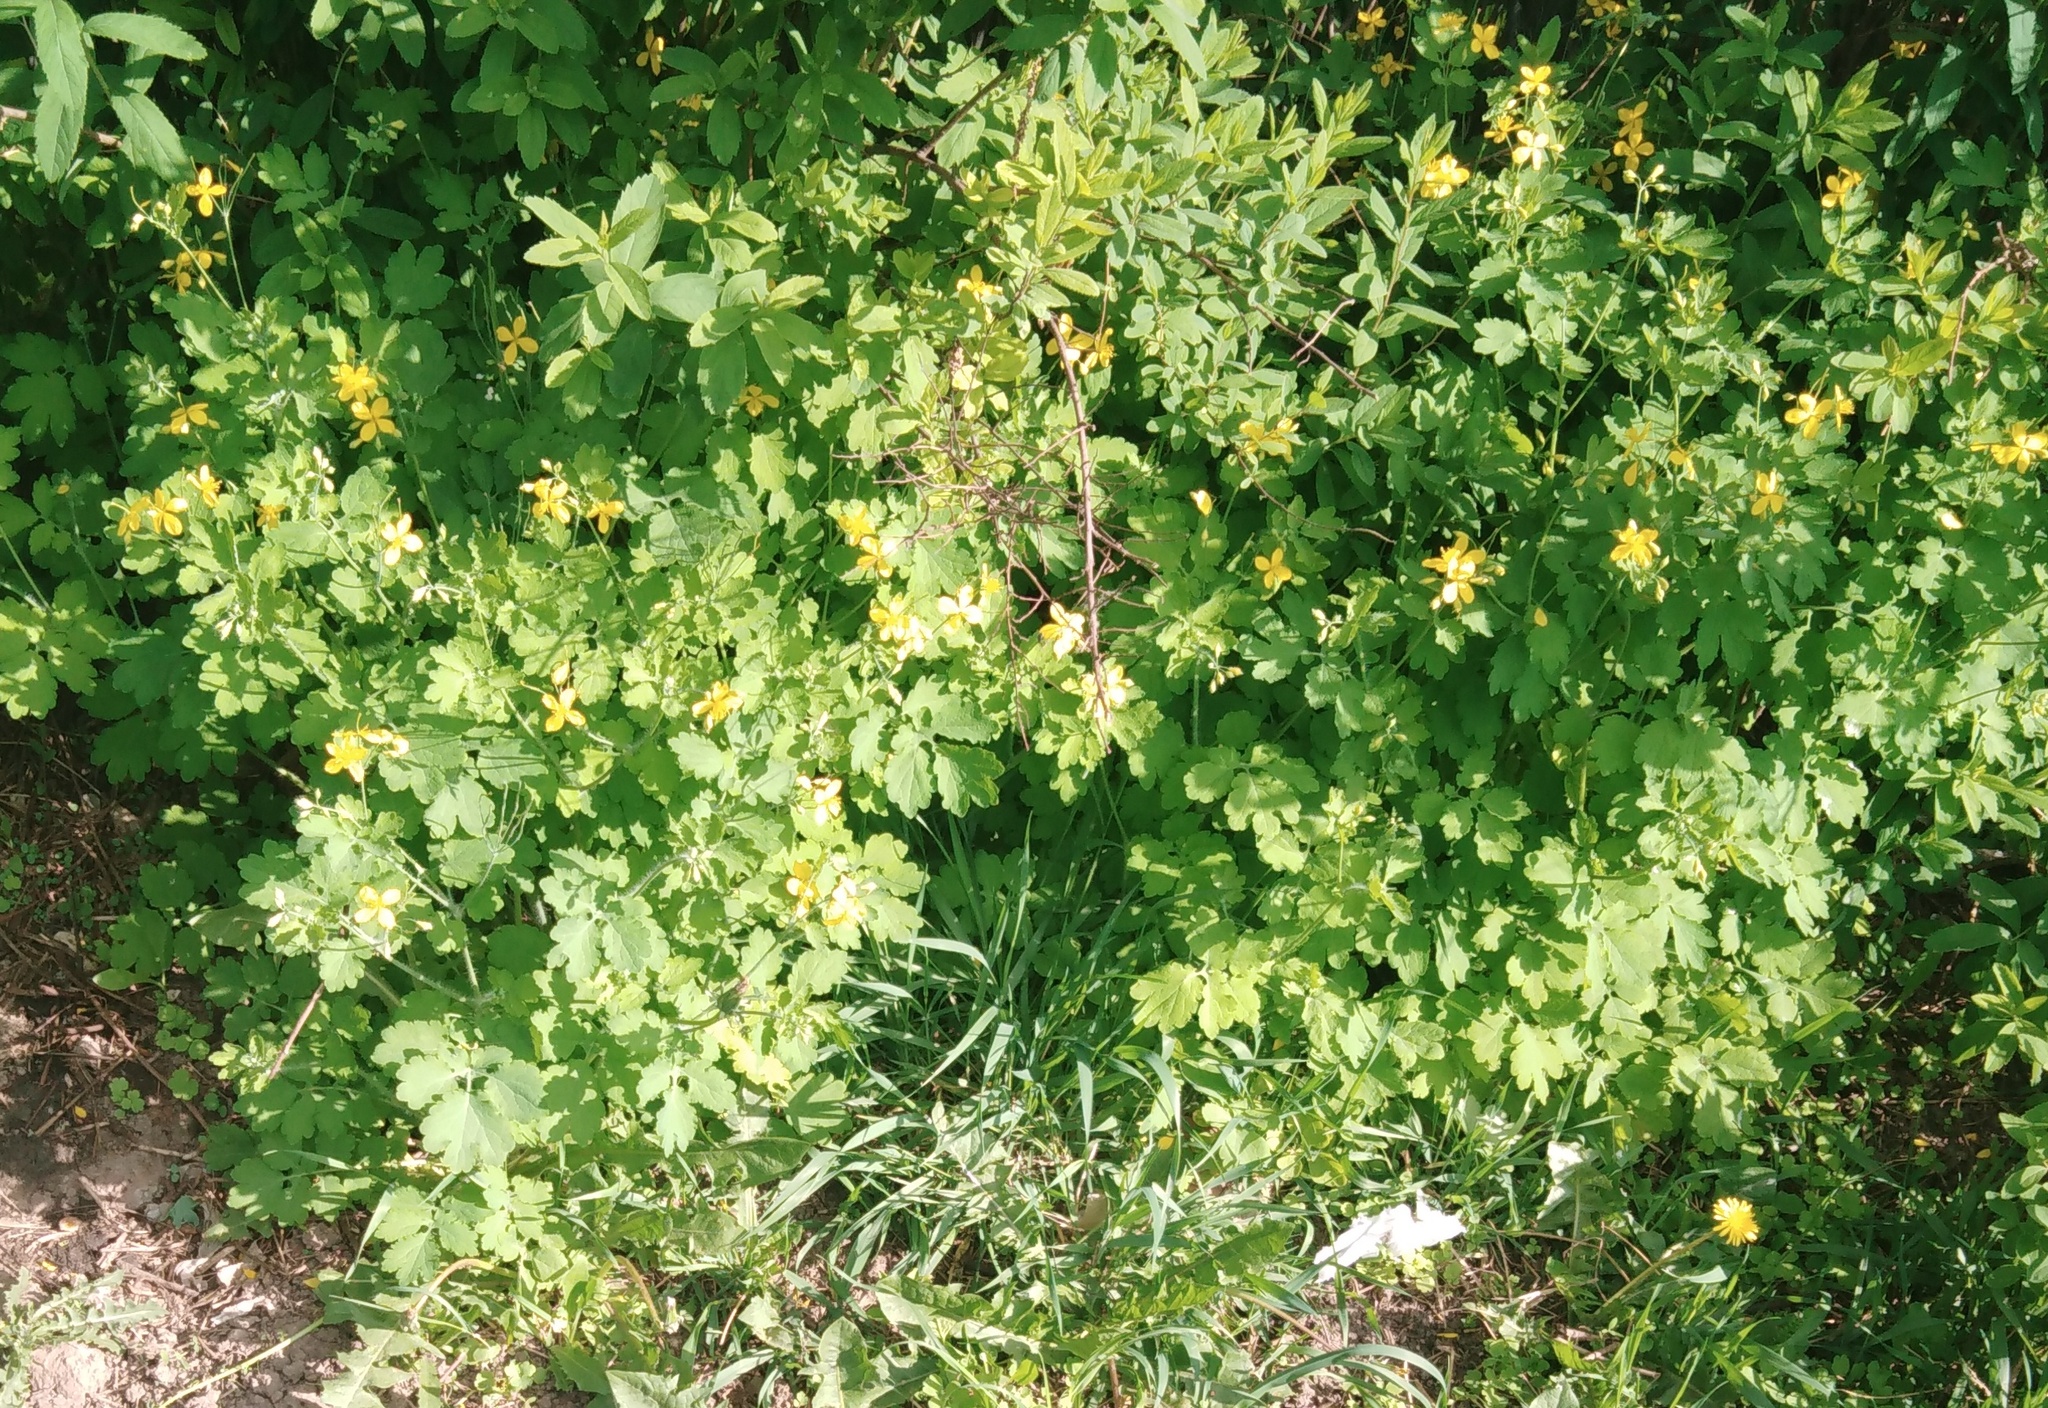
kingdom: Plantae
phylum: Tracheophyta
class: Magnoliopsida
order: Ranunculales
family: Papaveraceae
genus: Chelidonium
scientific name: Chelidonium majus
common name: Greater celandine
